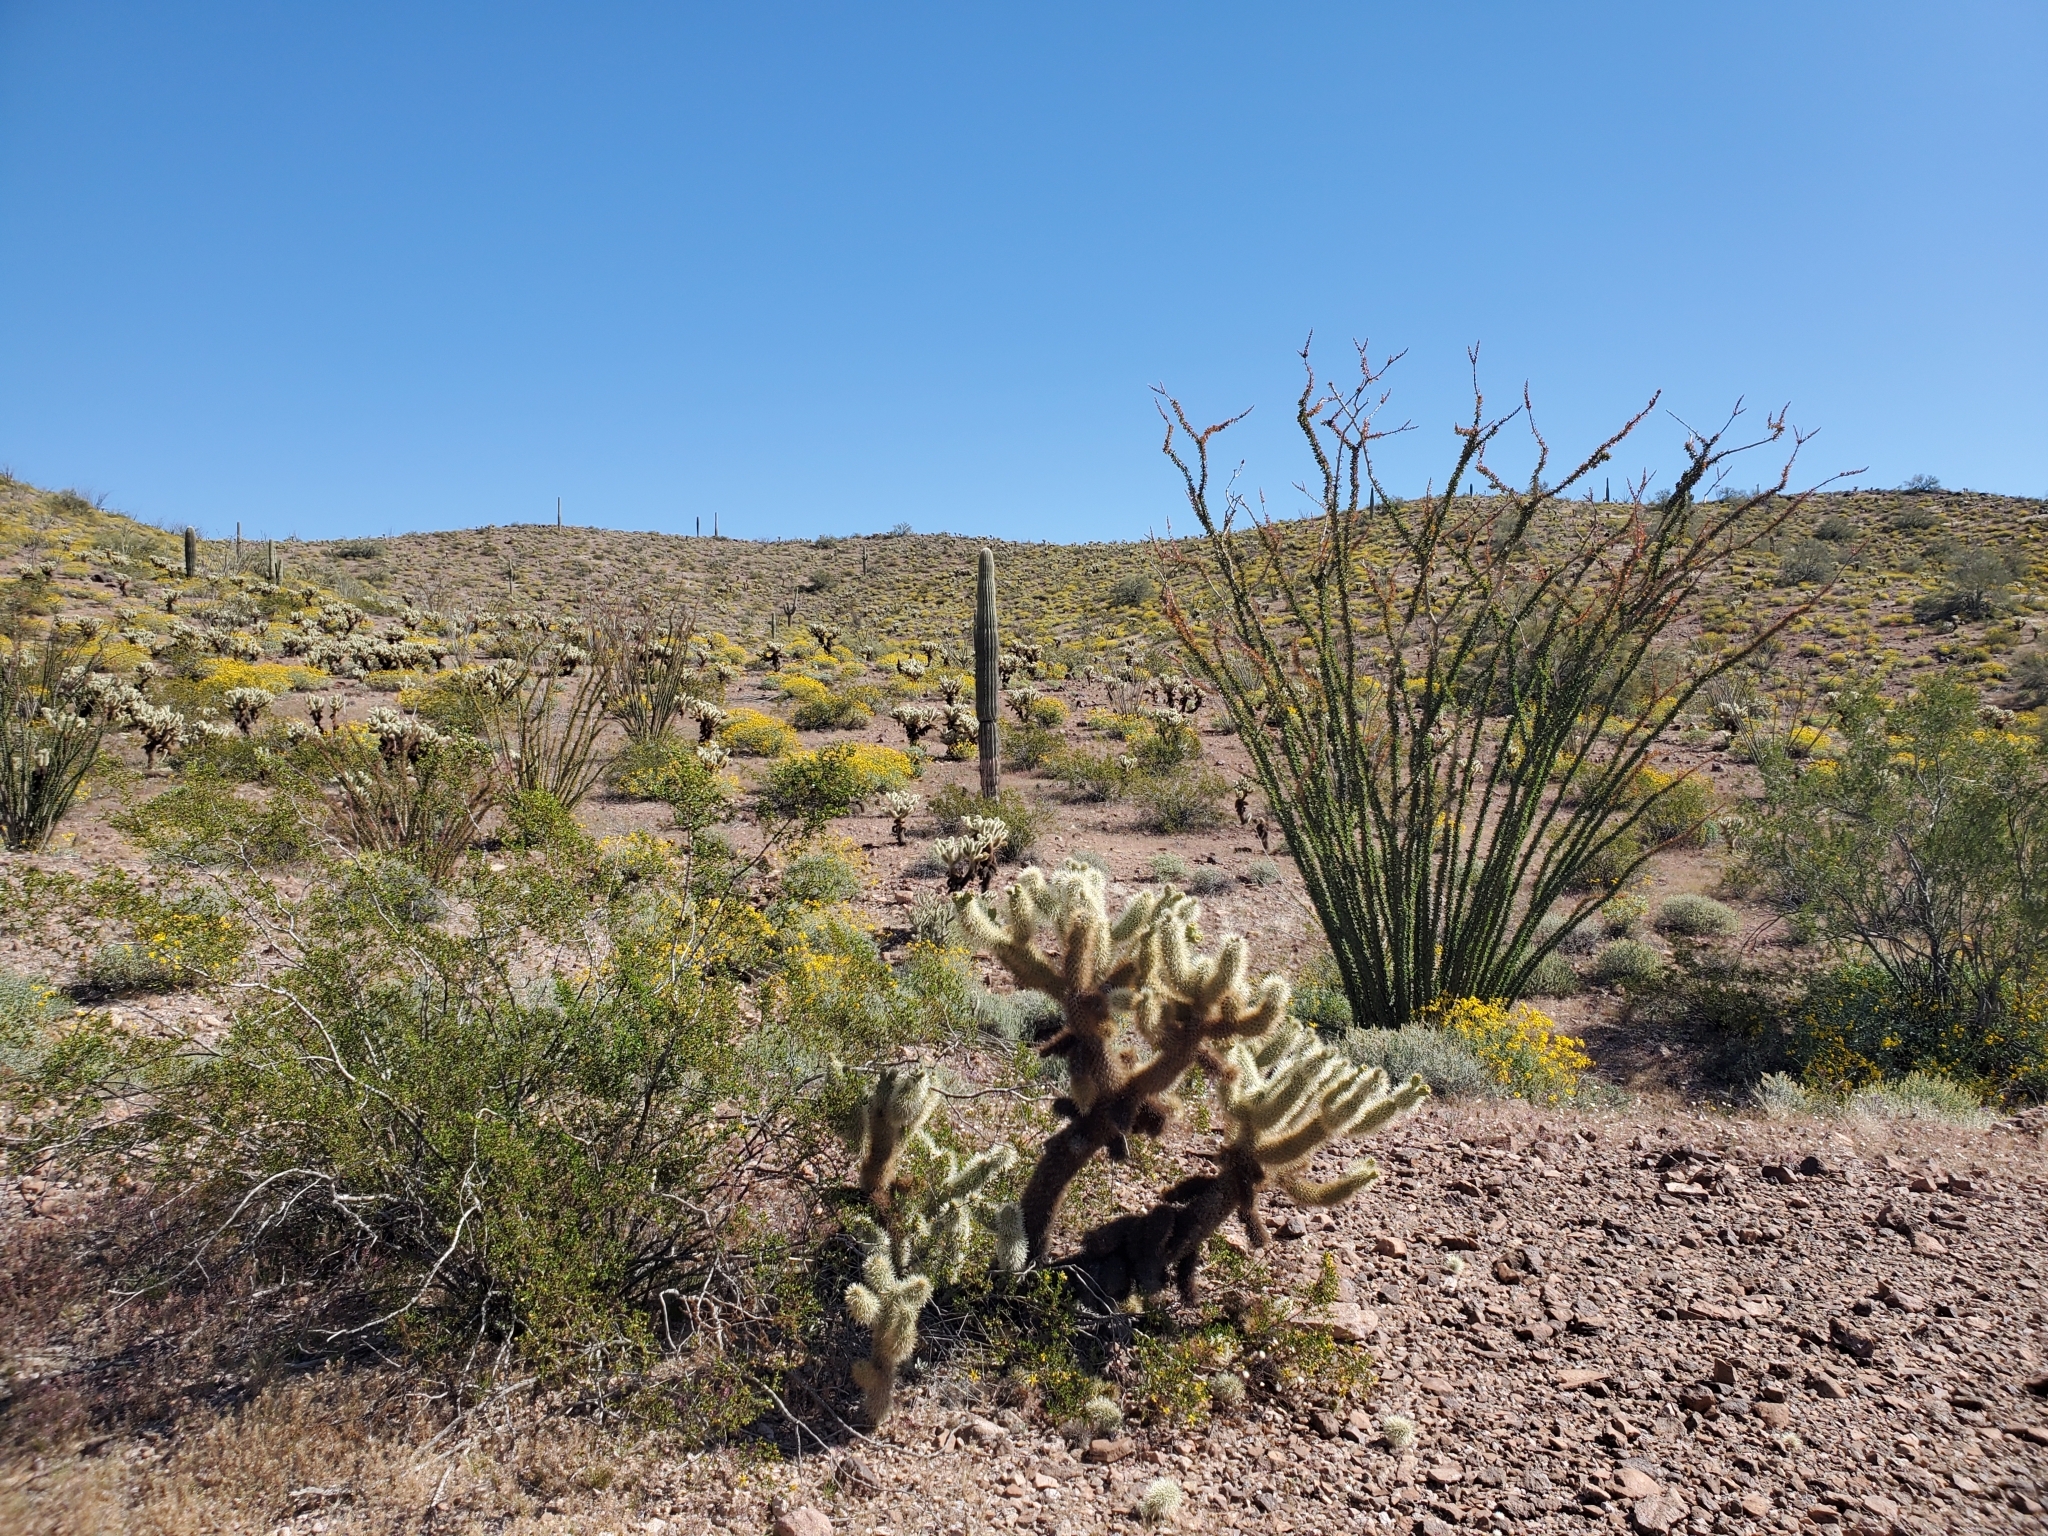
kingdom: Plantae
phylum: Tracheophyta
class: Magnoliopsida
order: Caryophyllales
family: Cactaceae
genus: Cylindropuntia
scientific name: Cylindropuntia fosbergii
